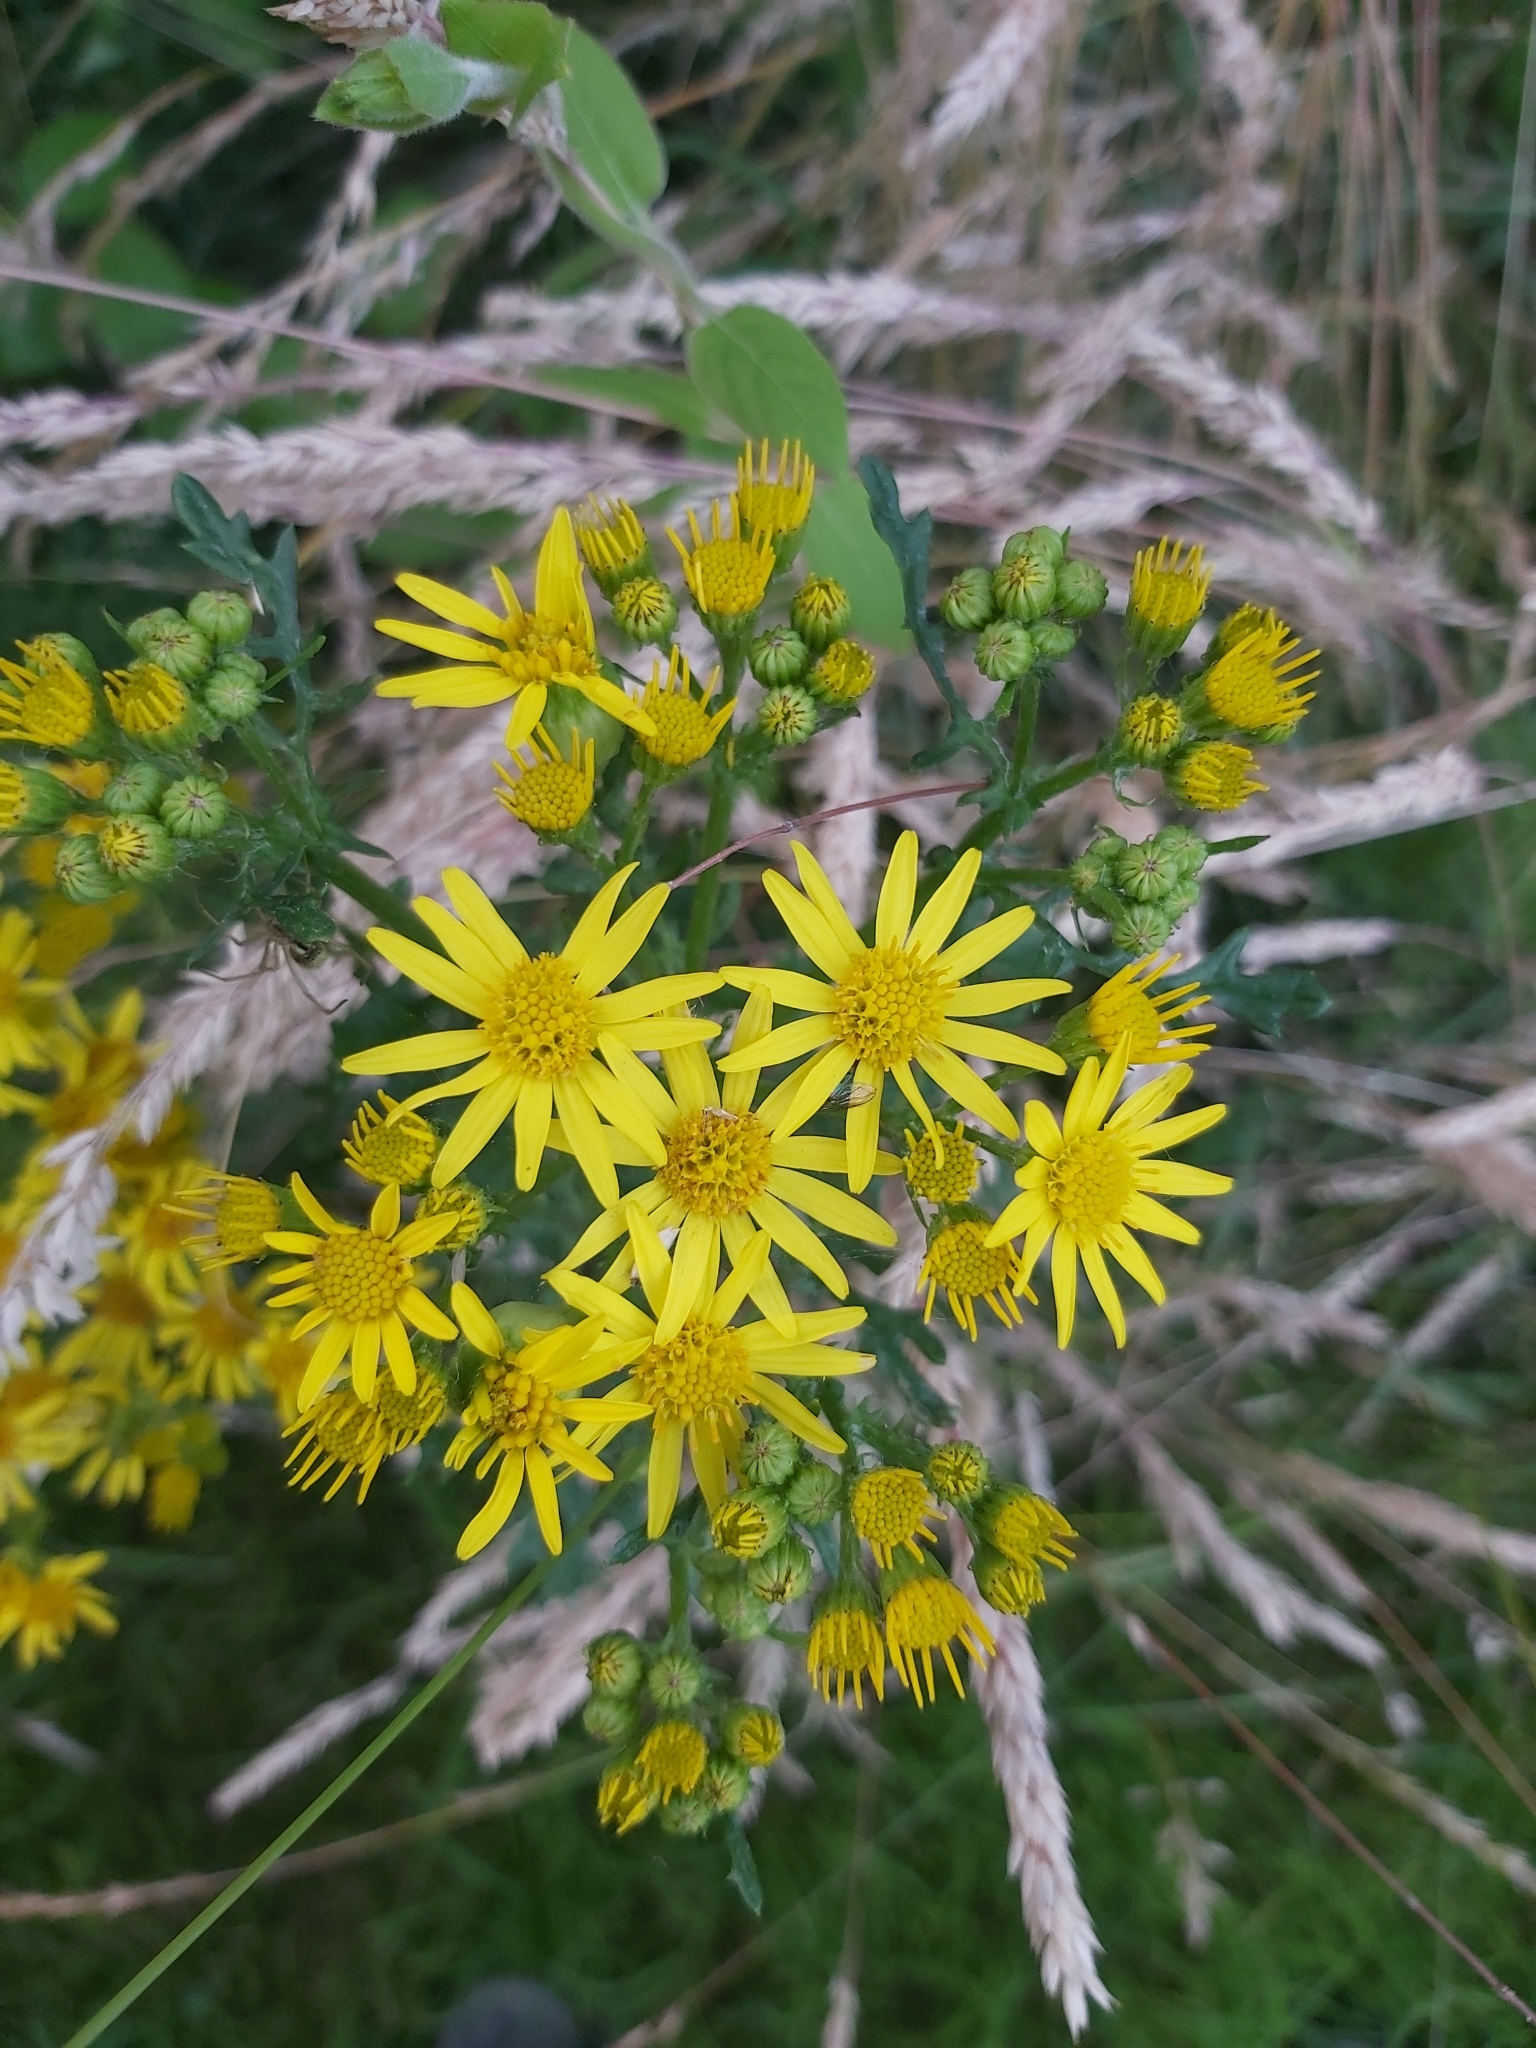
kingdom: Plantae
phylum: Tracheophyta
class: Magnoliopsida
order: Asterales
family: Asteraceae
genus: Jacobaea
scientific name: Jacobaea vulgaris
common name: Stinking willie
